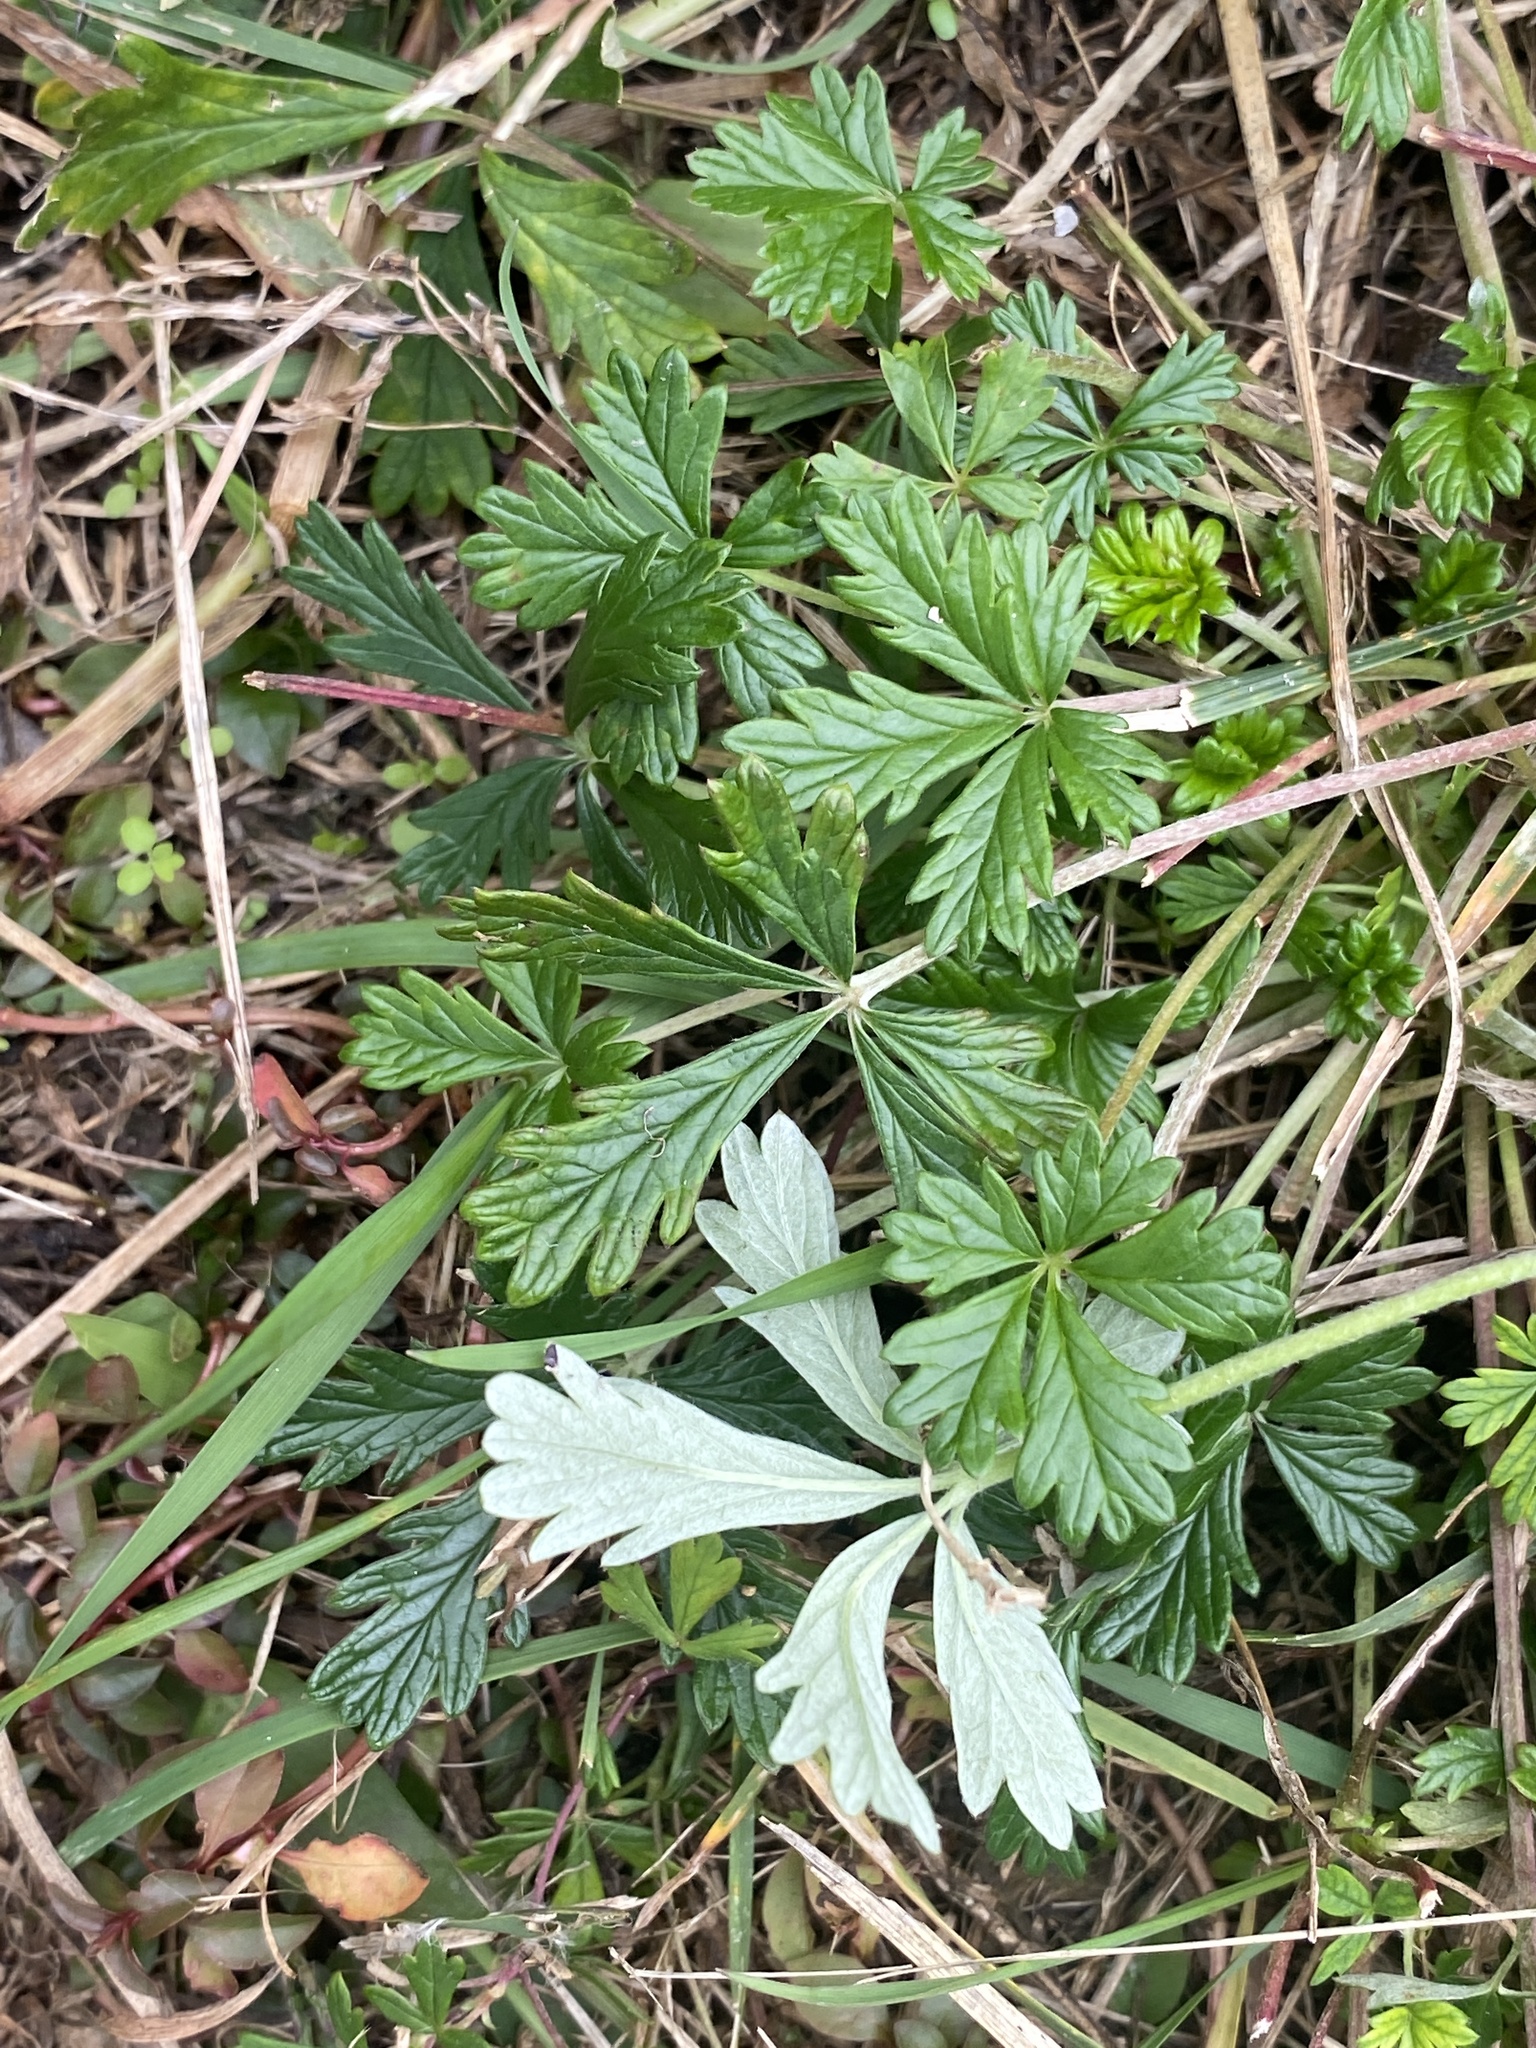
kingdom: Plantae
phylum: Tracheophyta
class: Magnoliopsida
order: Rosales
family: Rosaceae
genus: Potentilla
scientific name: Potentilla argentea
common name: Hoary cinquefoil
